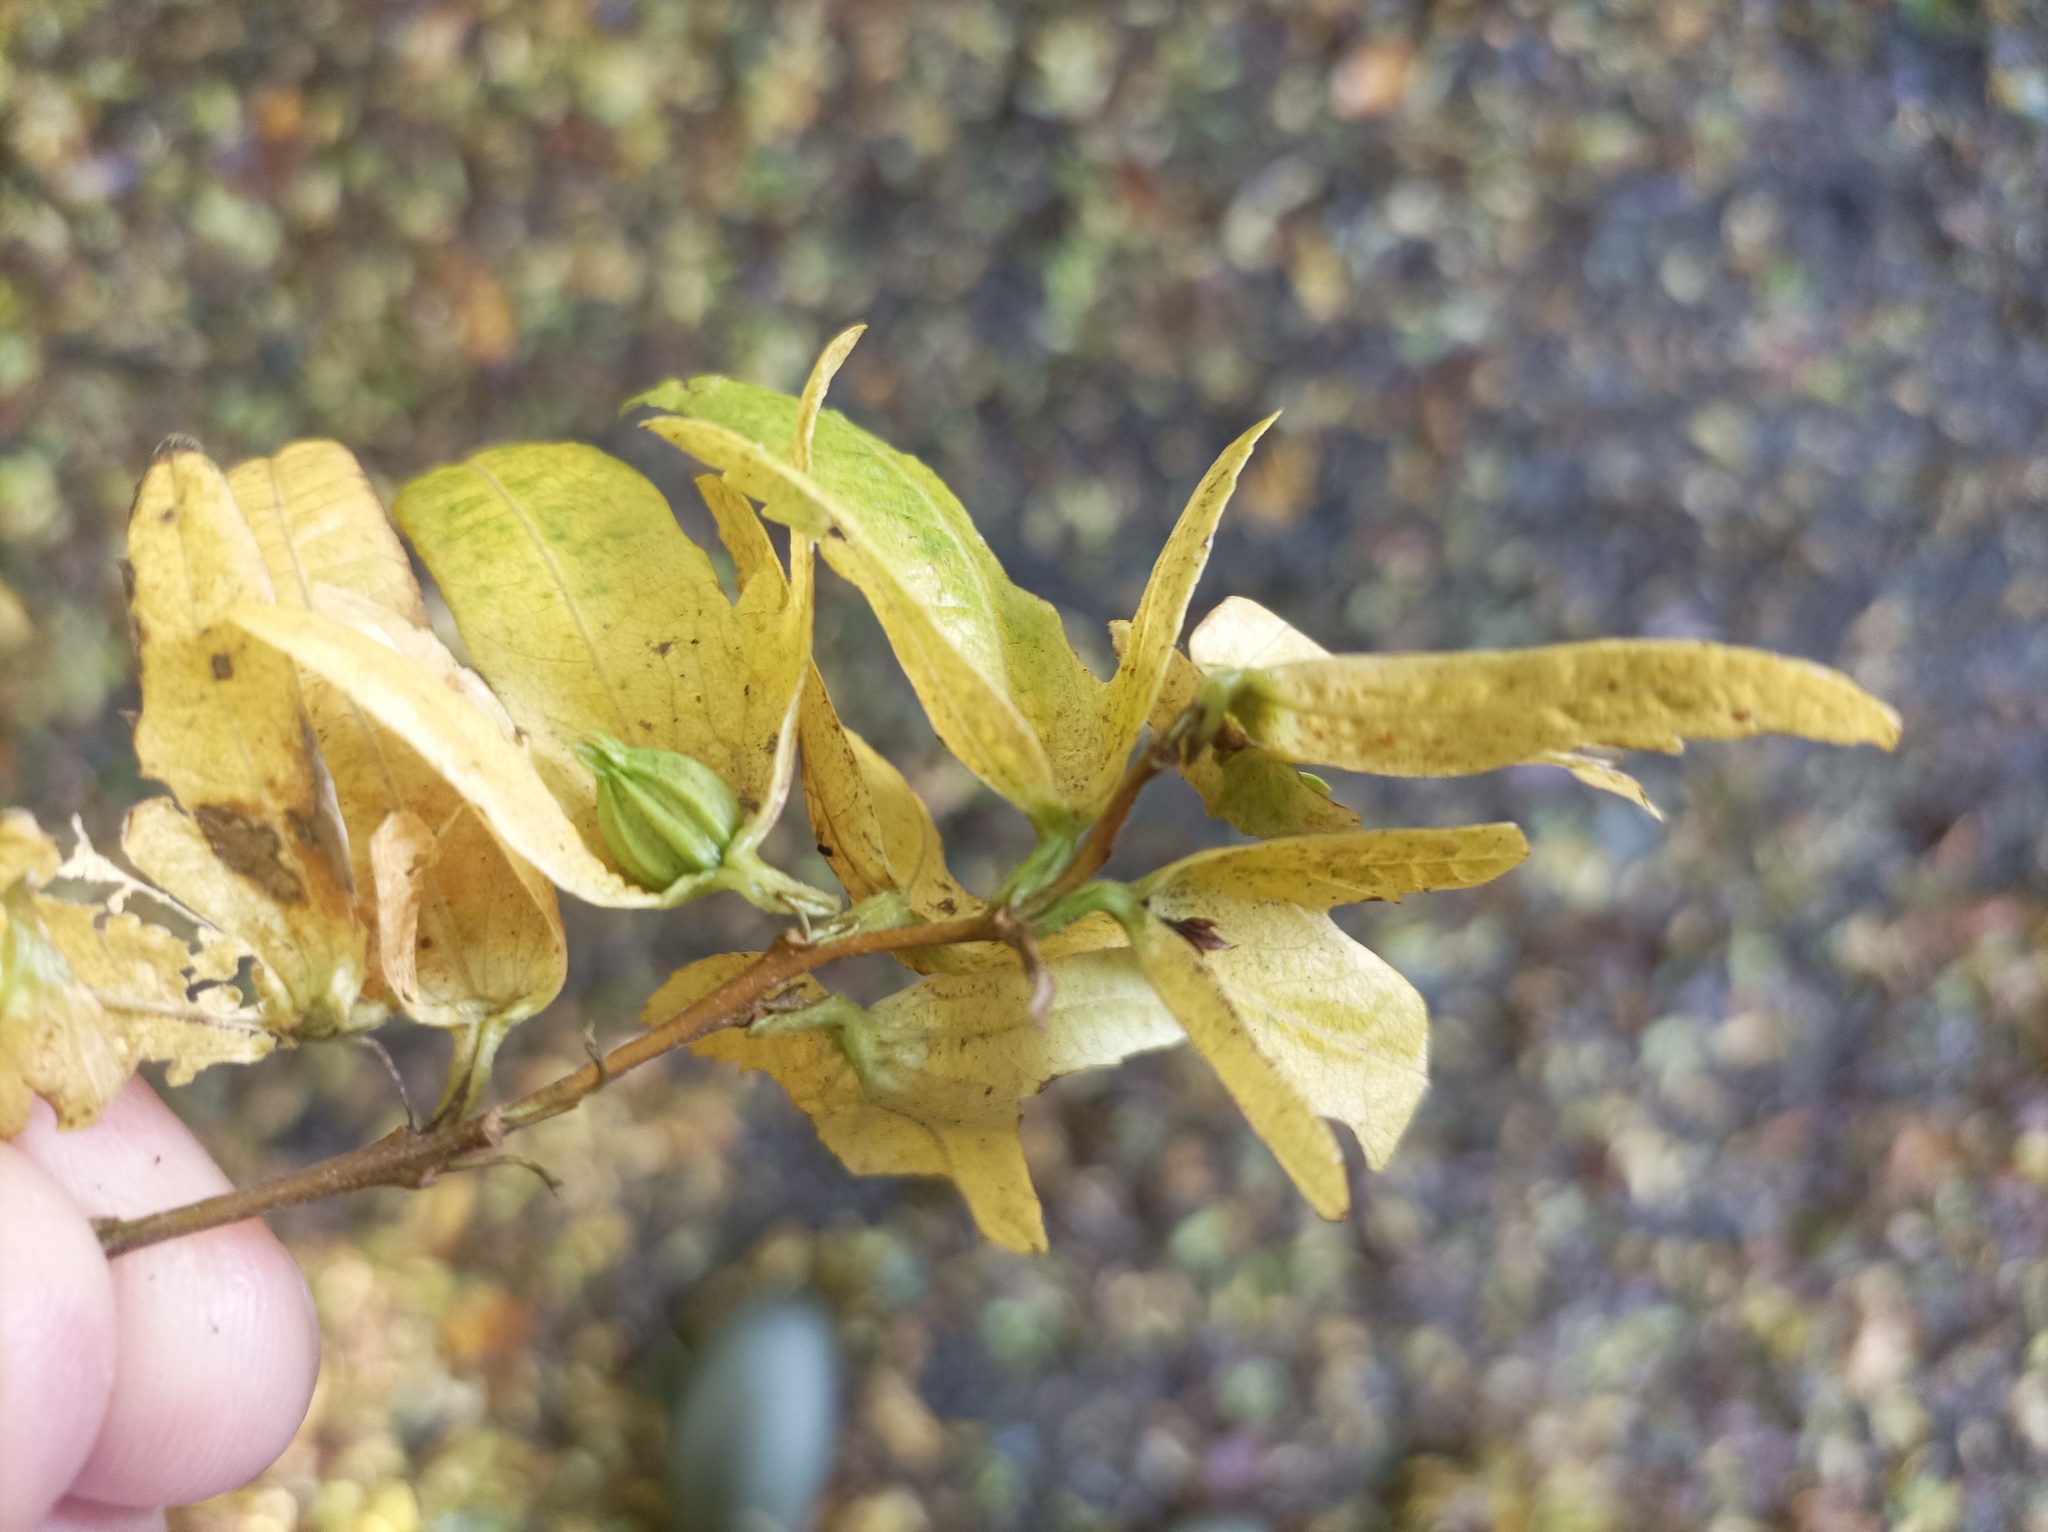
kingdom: Plantae
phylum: Tracheophyta
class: Magnoliopsida
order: Fagales
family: Betulaceae
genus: Carpinus
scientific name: Carpinus betulus
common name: Hornbeam
